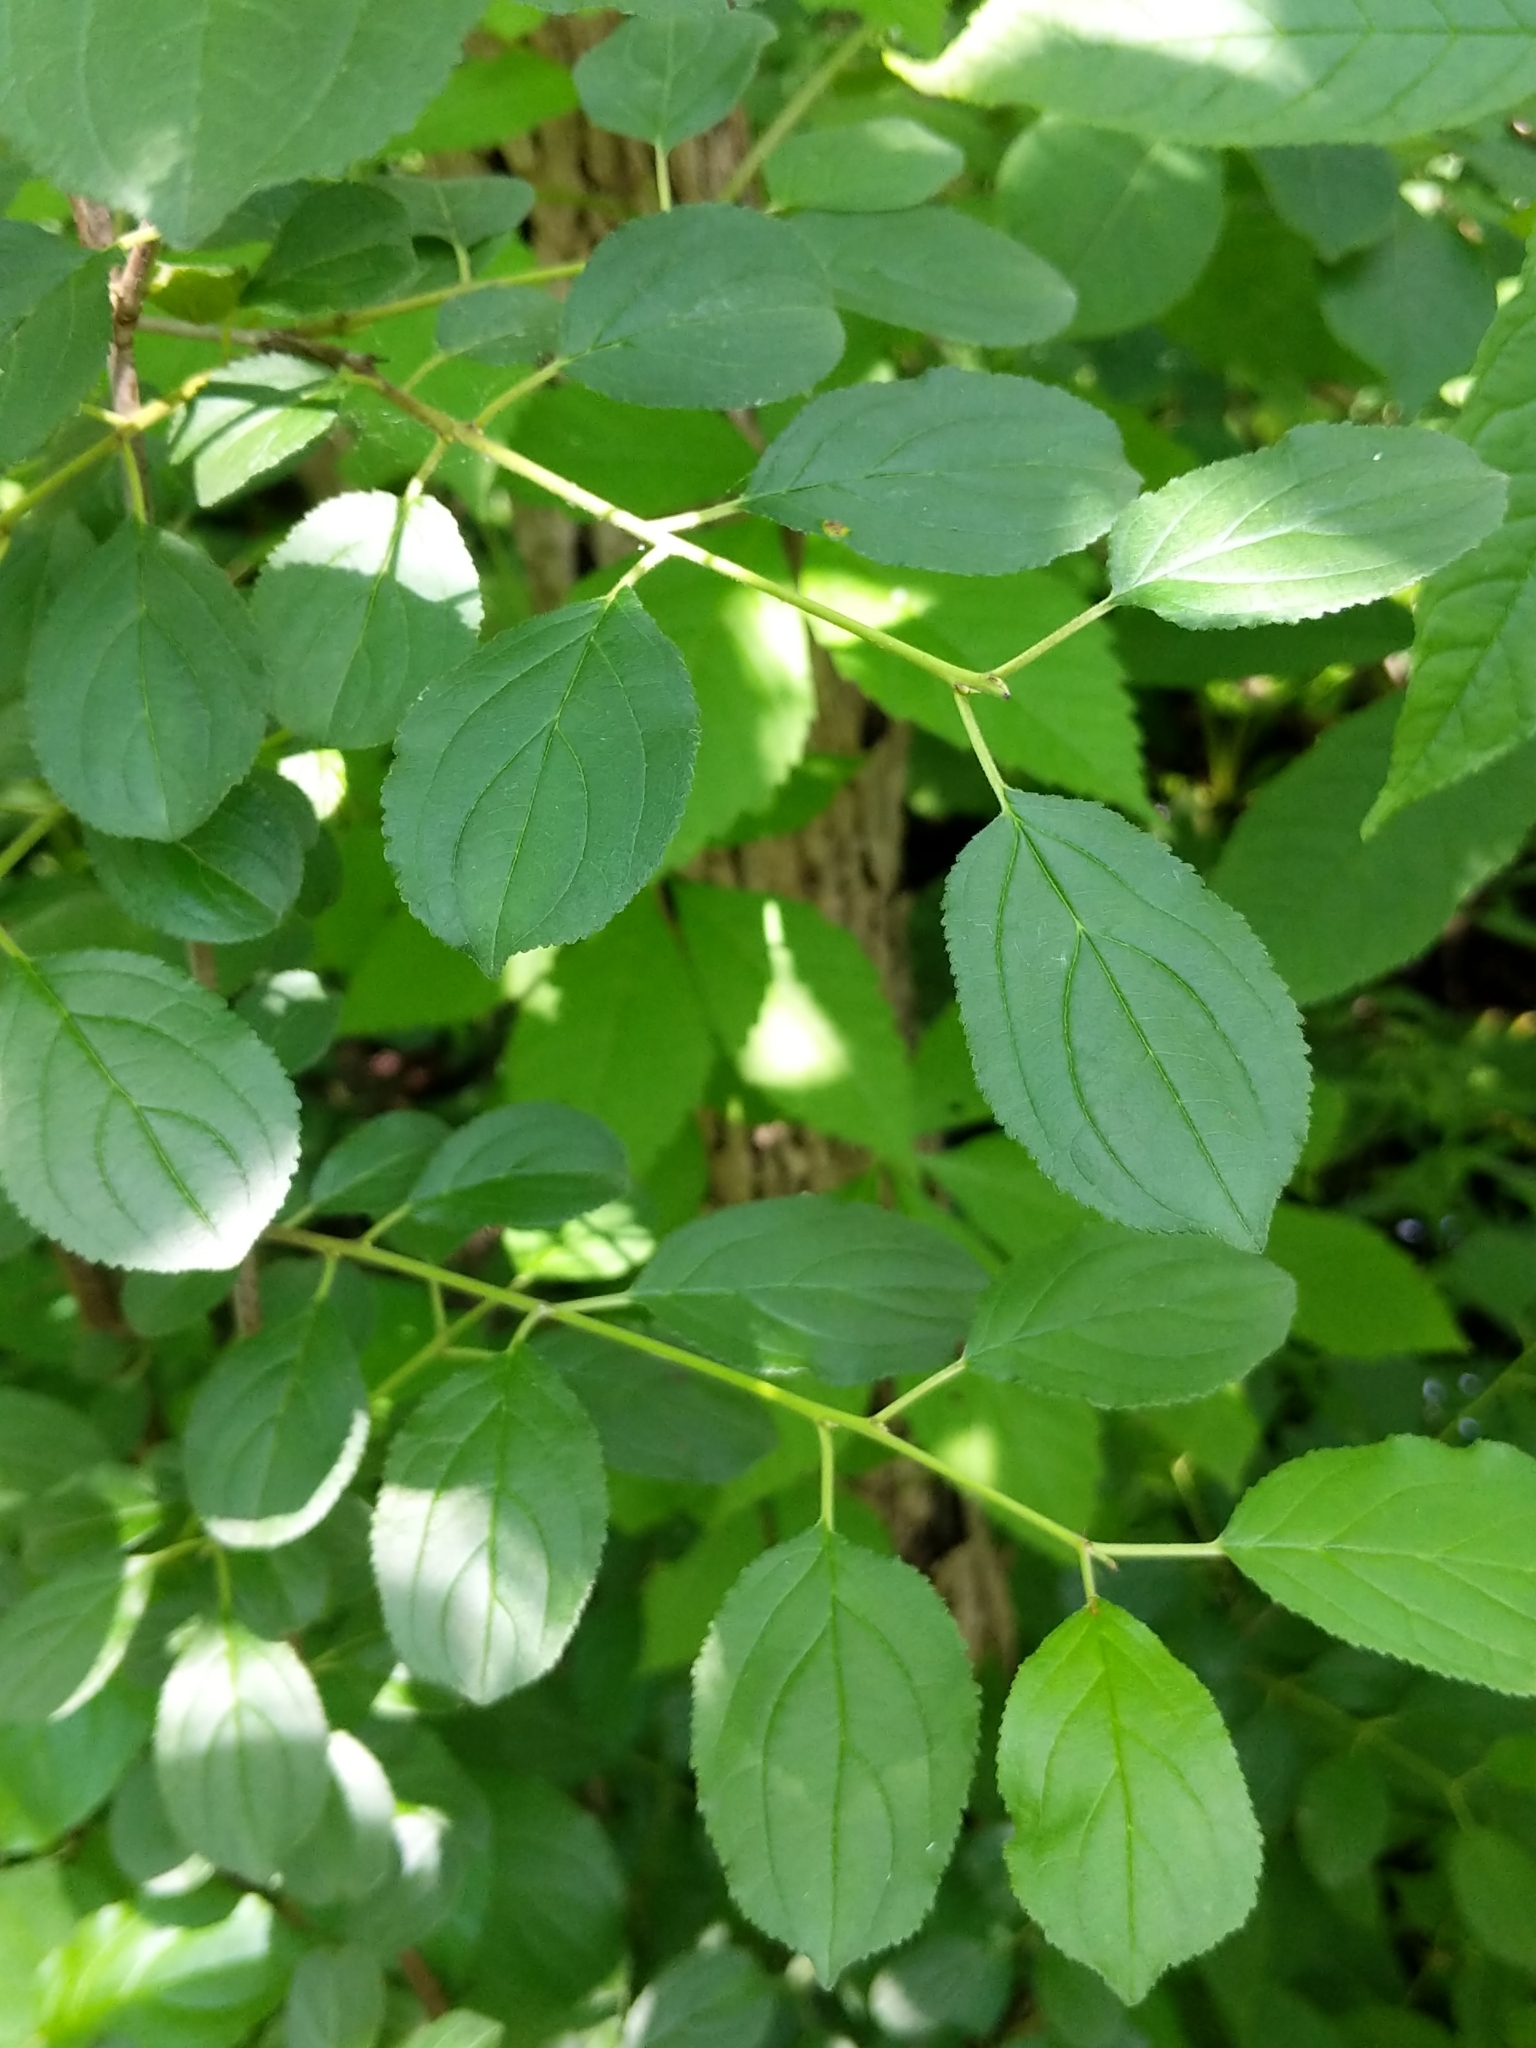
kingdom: Plantae
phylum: Tracheophyta
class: Magnoliopsida
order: Rosales
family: Rhamnaceae
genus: Rhamnus
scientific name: Rhamnus cathartica
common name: Common buckthorn
